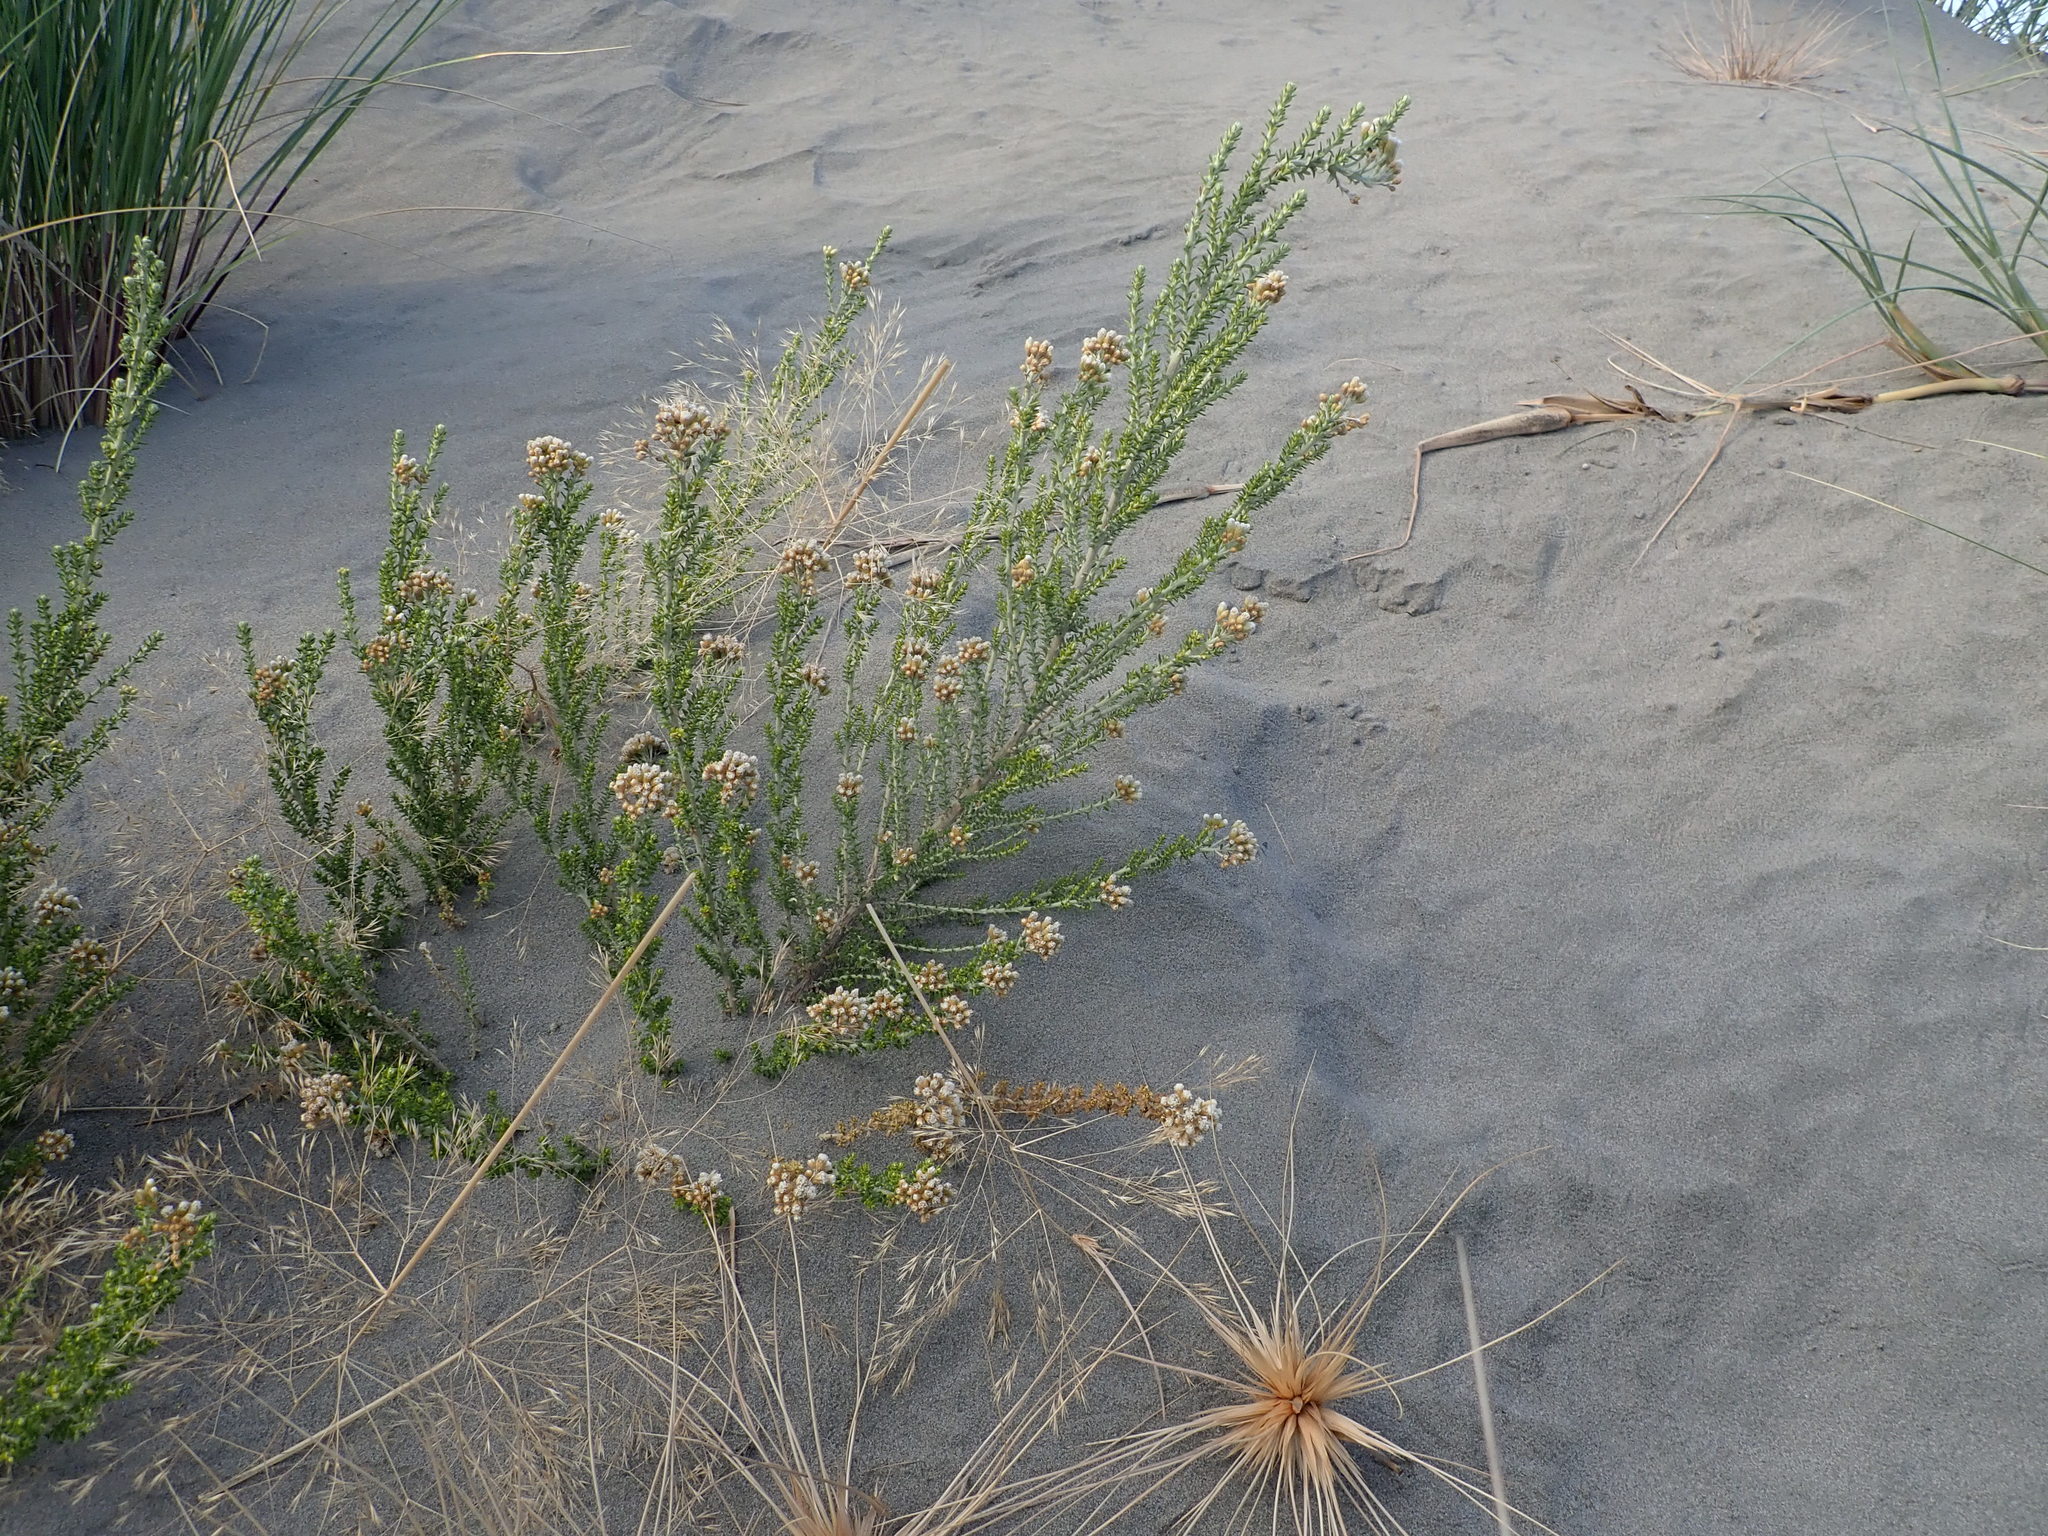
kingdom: Plantae
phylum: Tracheophyta
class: Magnoliopsida
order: Asterales
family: Asteraceae
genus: Ozothamnus
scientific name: Ozothamnus leptophyllus
